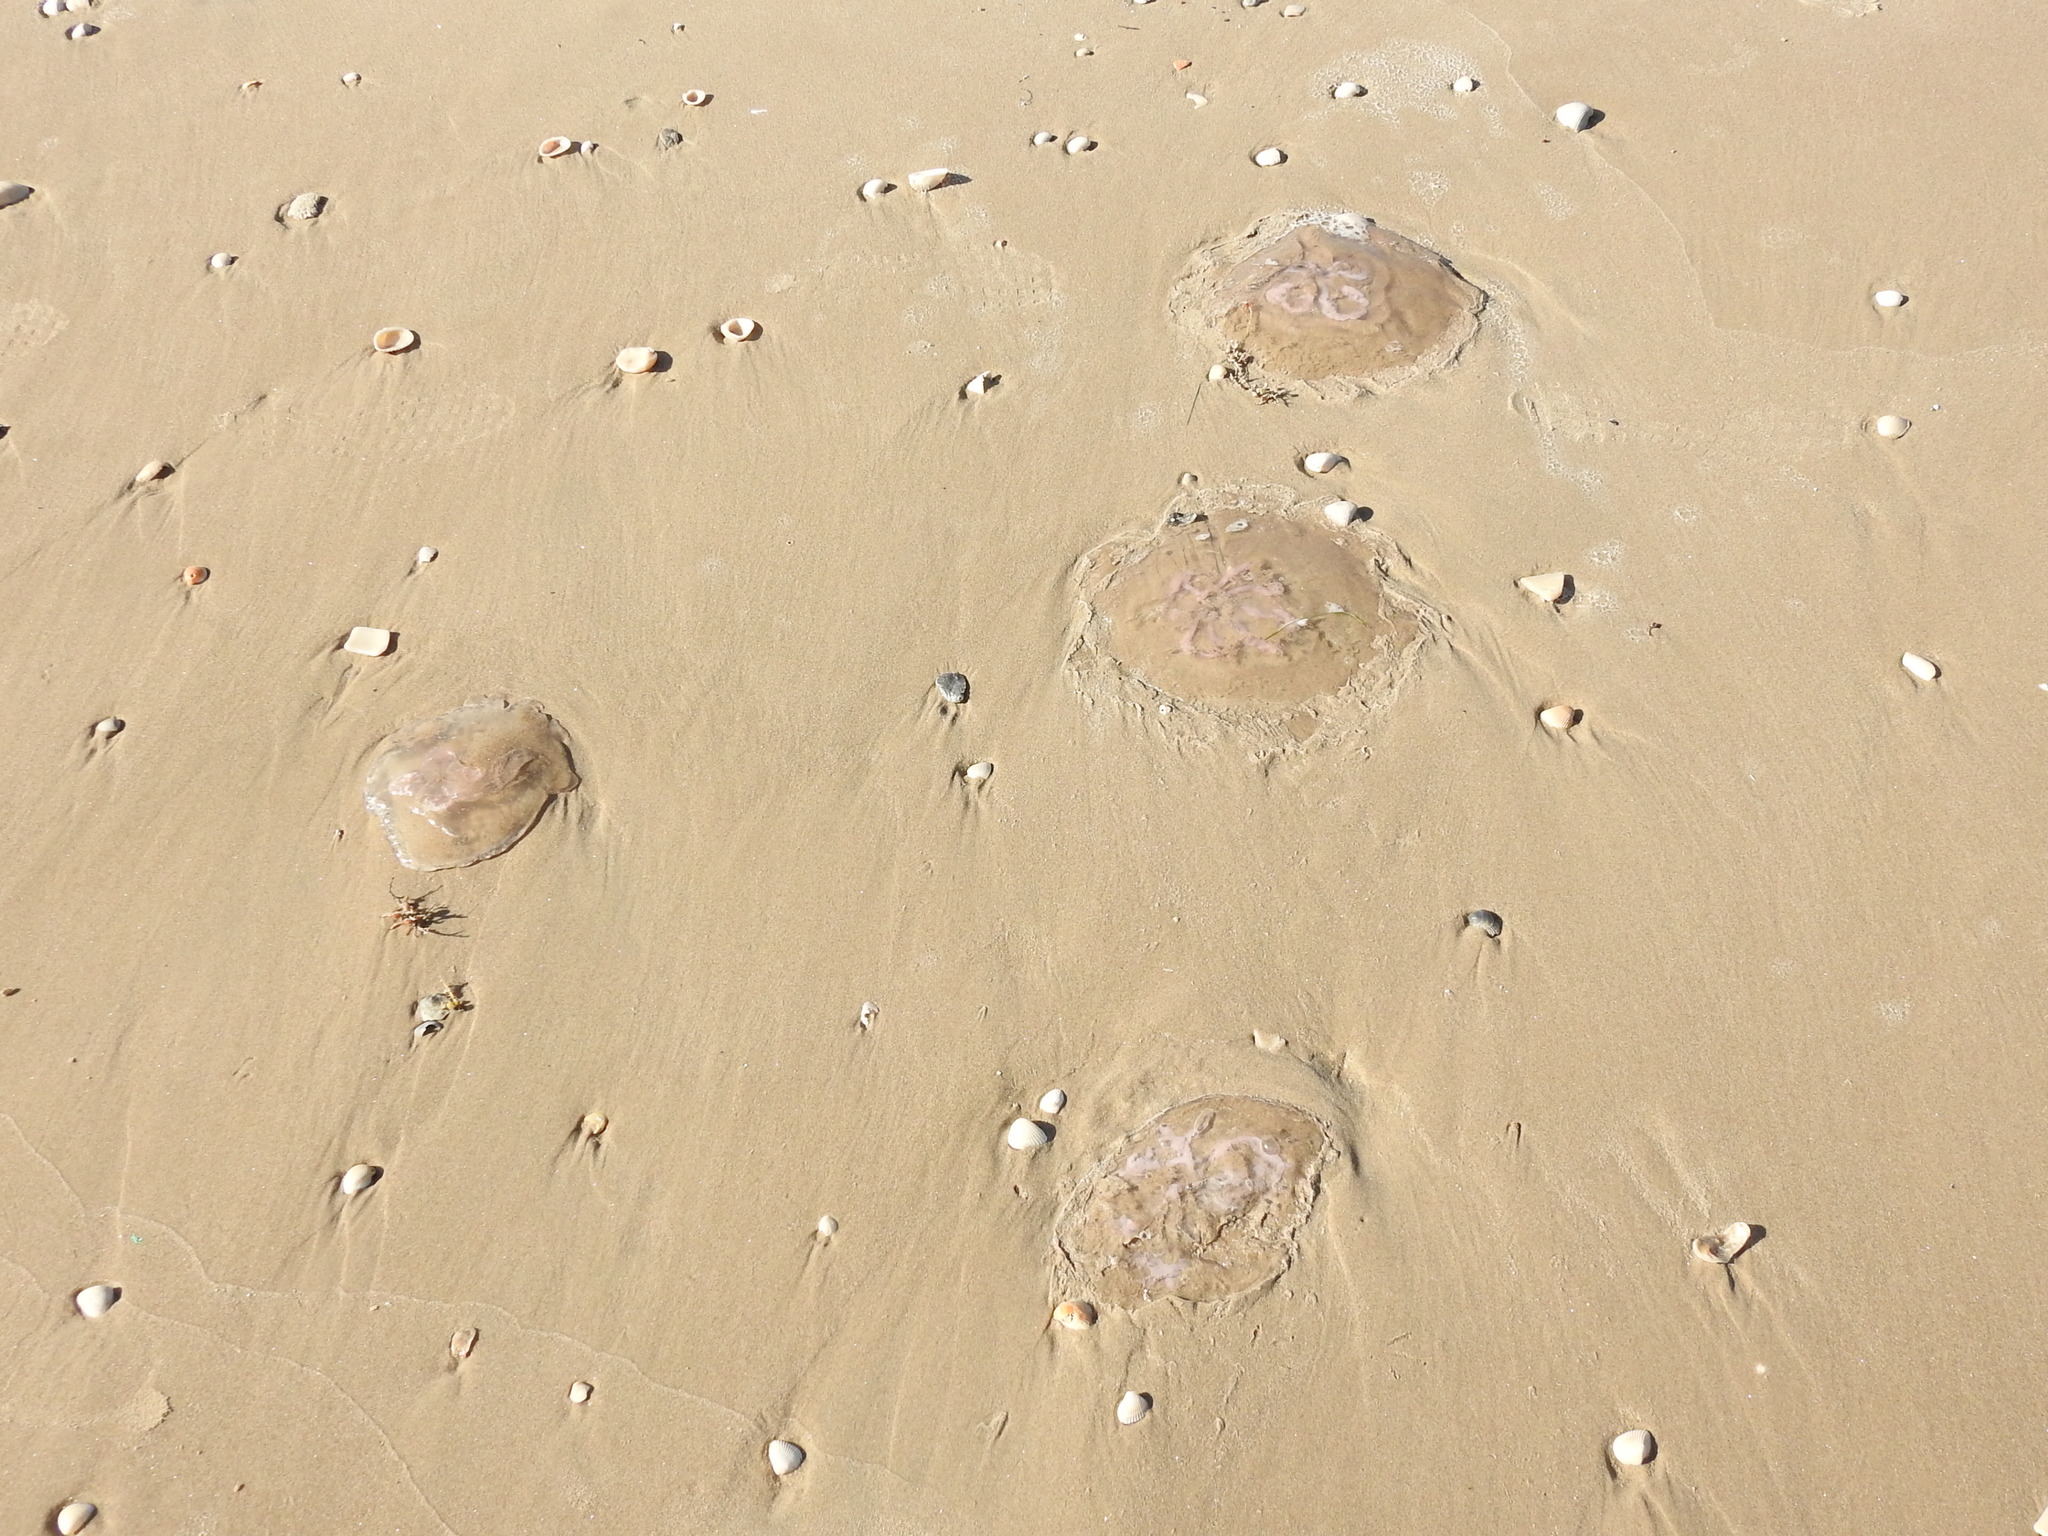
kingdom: Animalia
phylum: Cnidaria
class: Scyphozoa
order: Semaeostomeae
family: Ulmaridae
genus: Aurelia
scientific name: Aurelia marginalis
